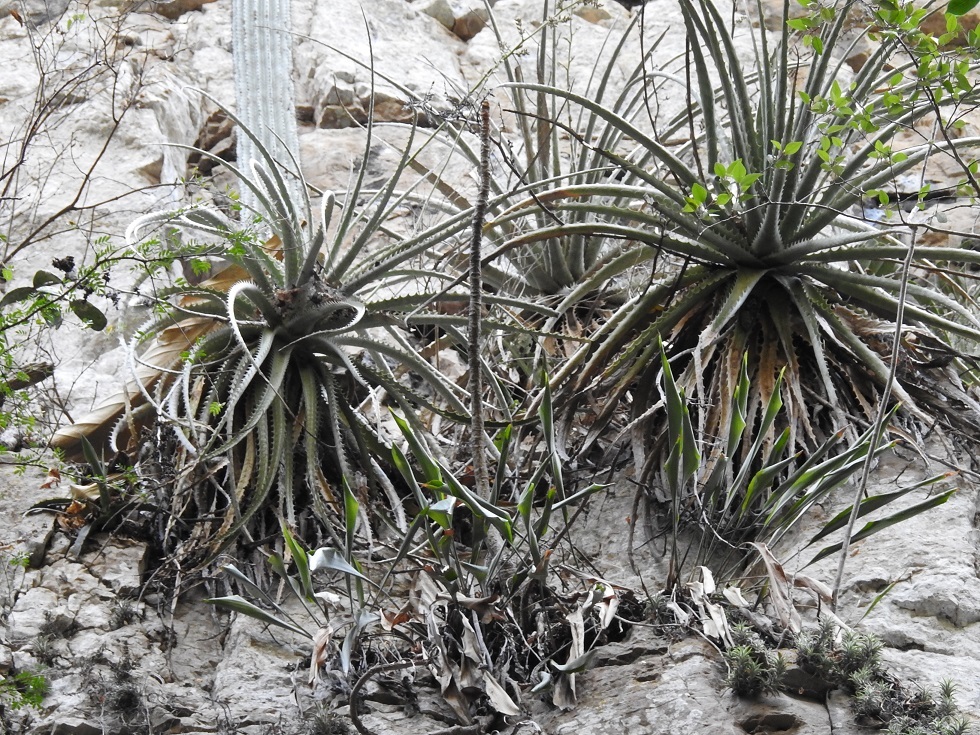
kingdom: Plantae
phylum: Tracheophyta
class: Liliopsida
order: Poales
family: Bromeliaceae
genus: Hechtia
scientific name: Hechtia glomerata
